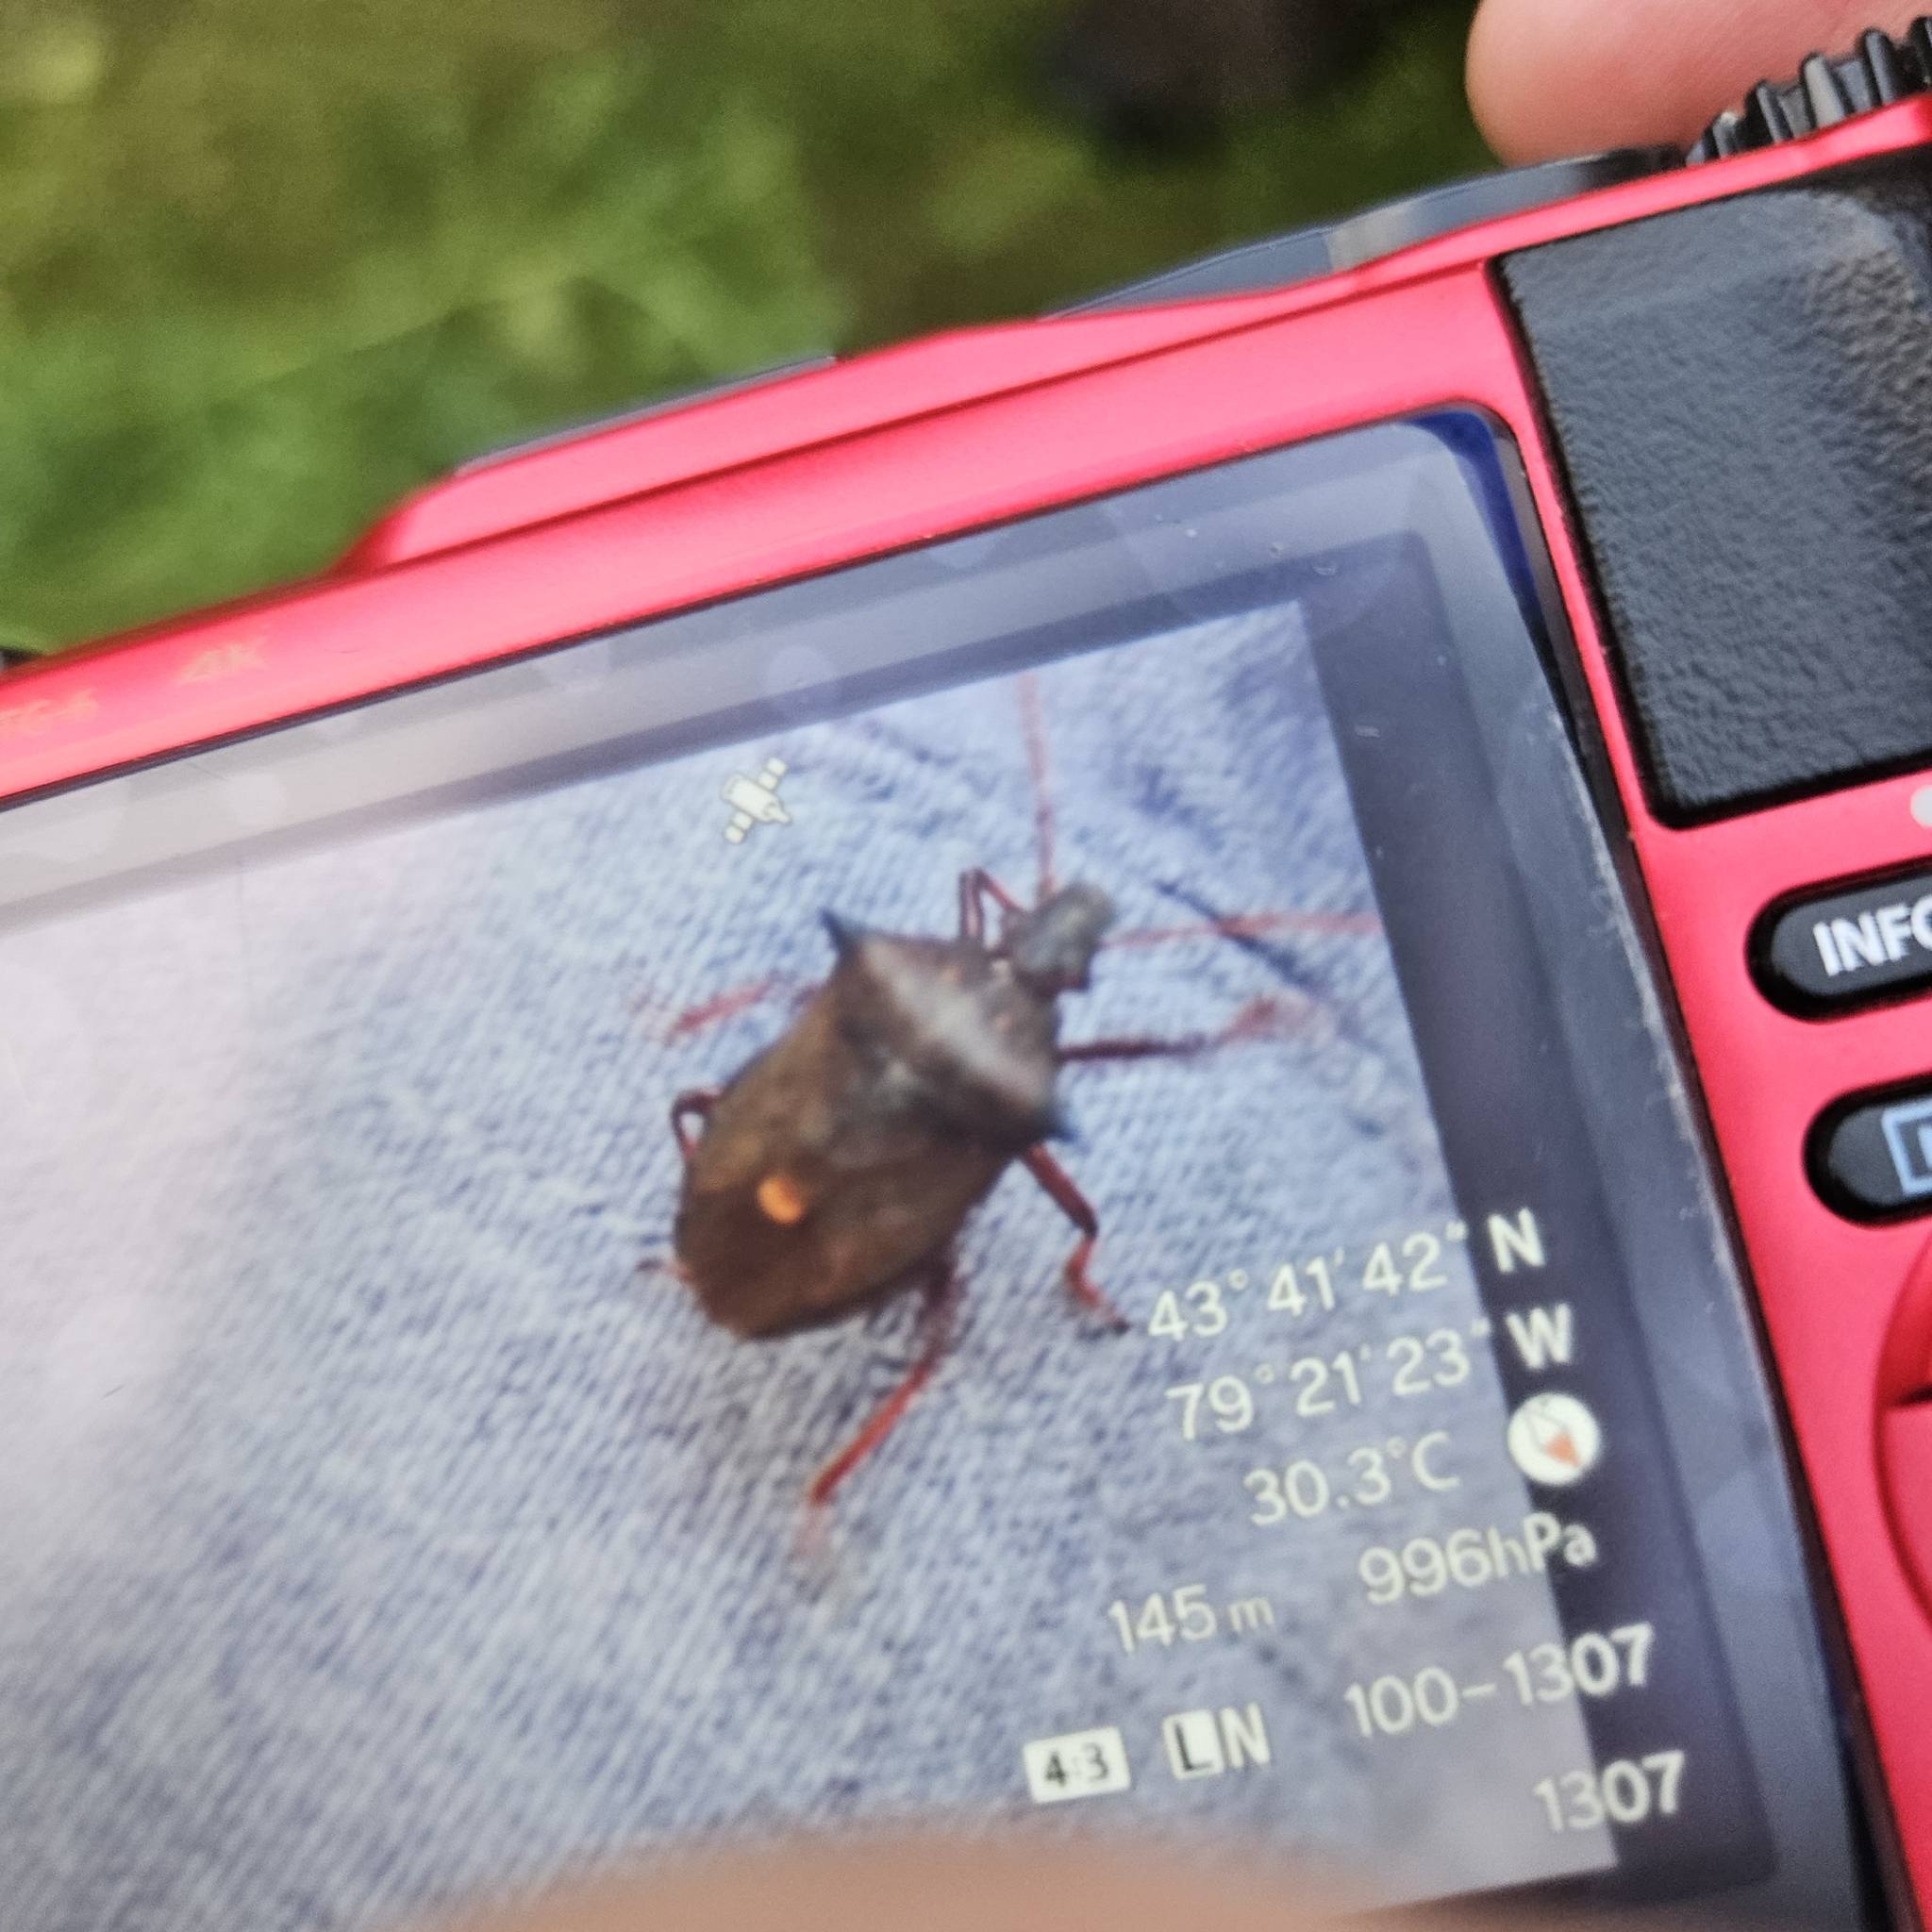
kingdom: Animalia
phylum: Arthropoda
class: Insecta
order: Hemiptera
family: Pentatomidae
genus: Picromerus
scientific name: Picromerus bidens
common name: Spiked shieldbug
